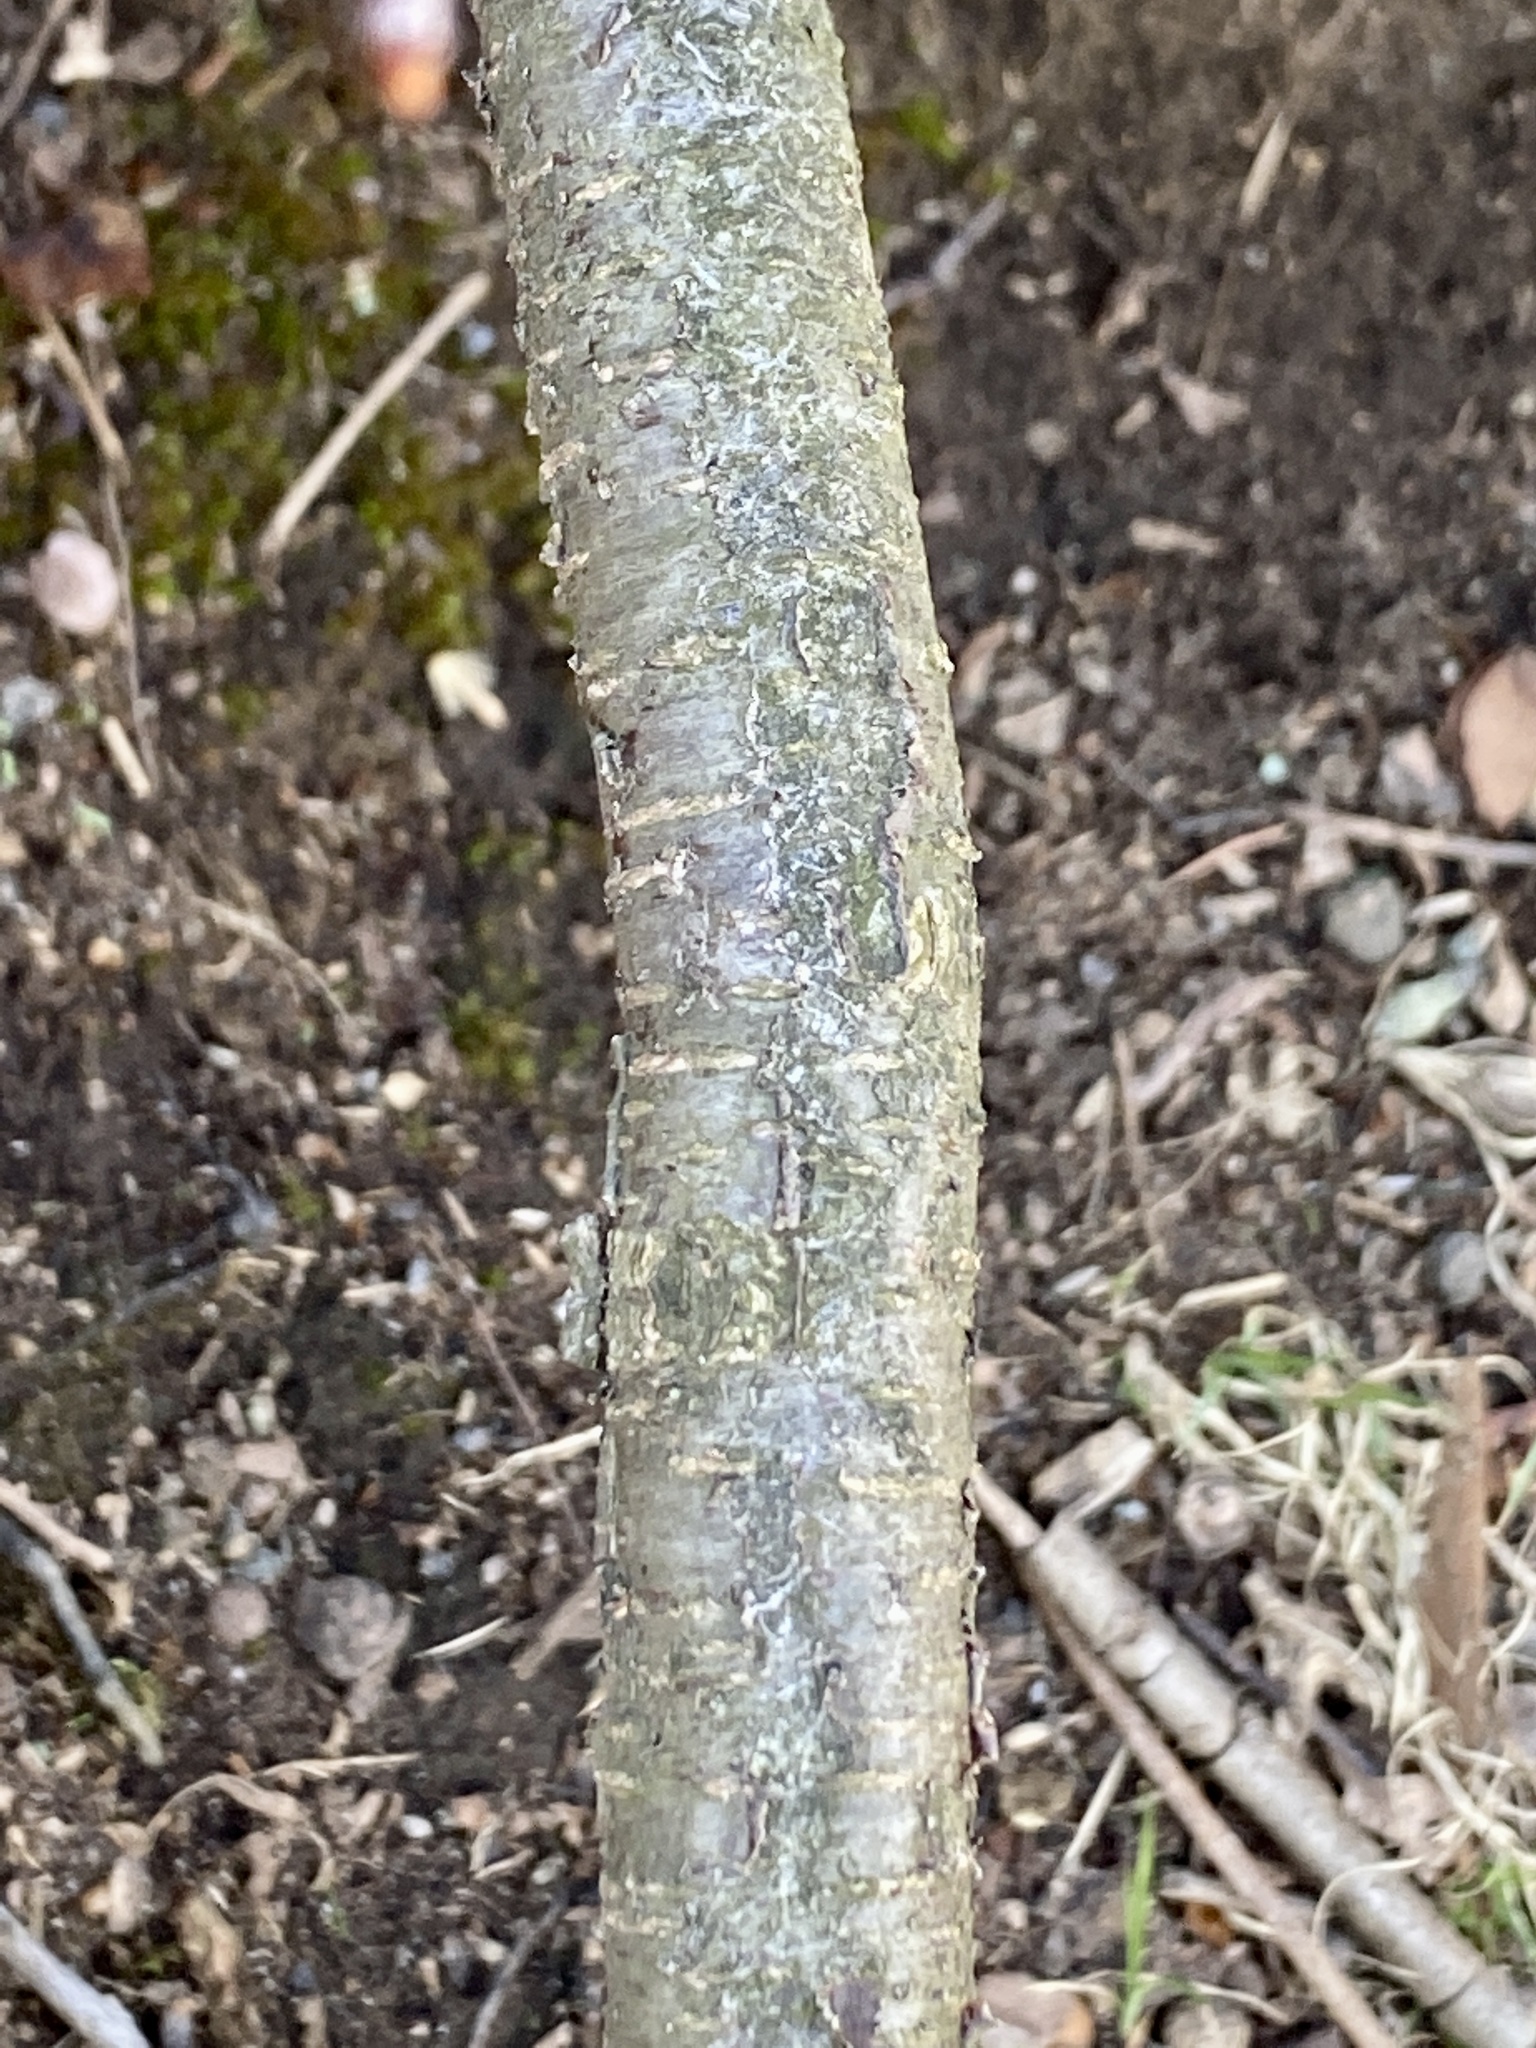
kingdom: Plantae
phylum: Tracheophyta
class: Magnoliopsida
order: Rosales
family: Rosaceae
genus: Prunus
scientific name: Prunus serotina
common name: Black cherry
